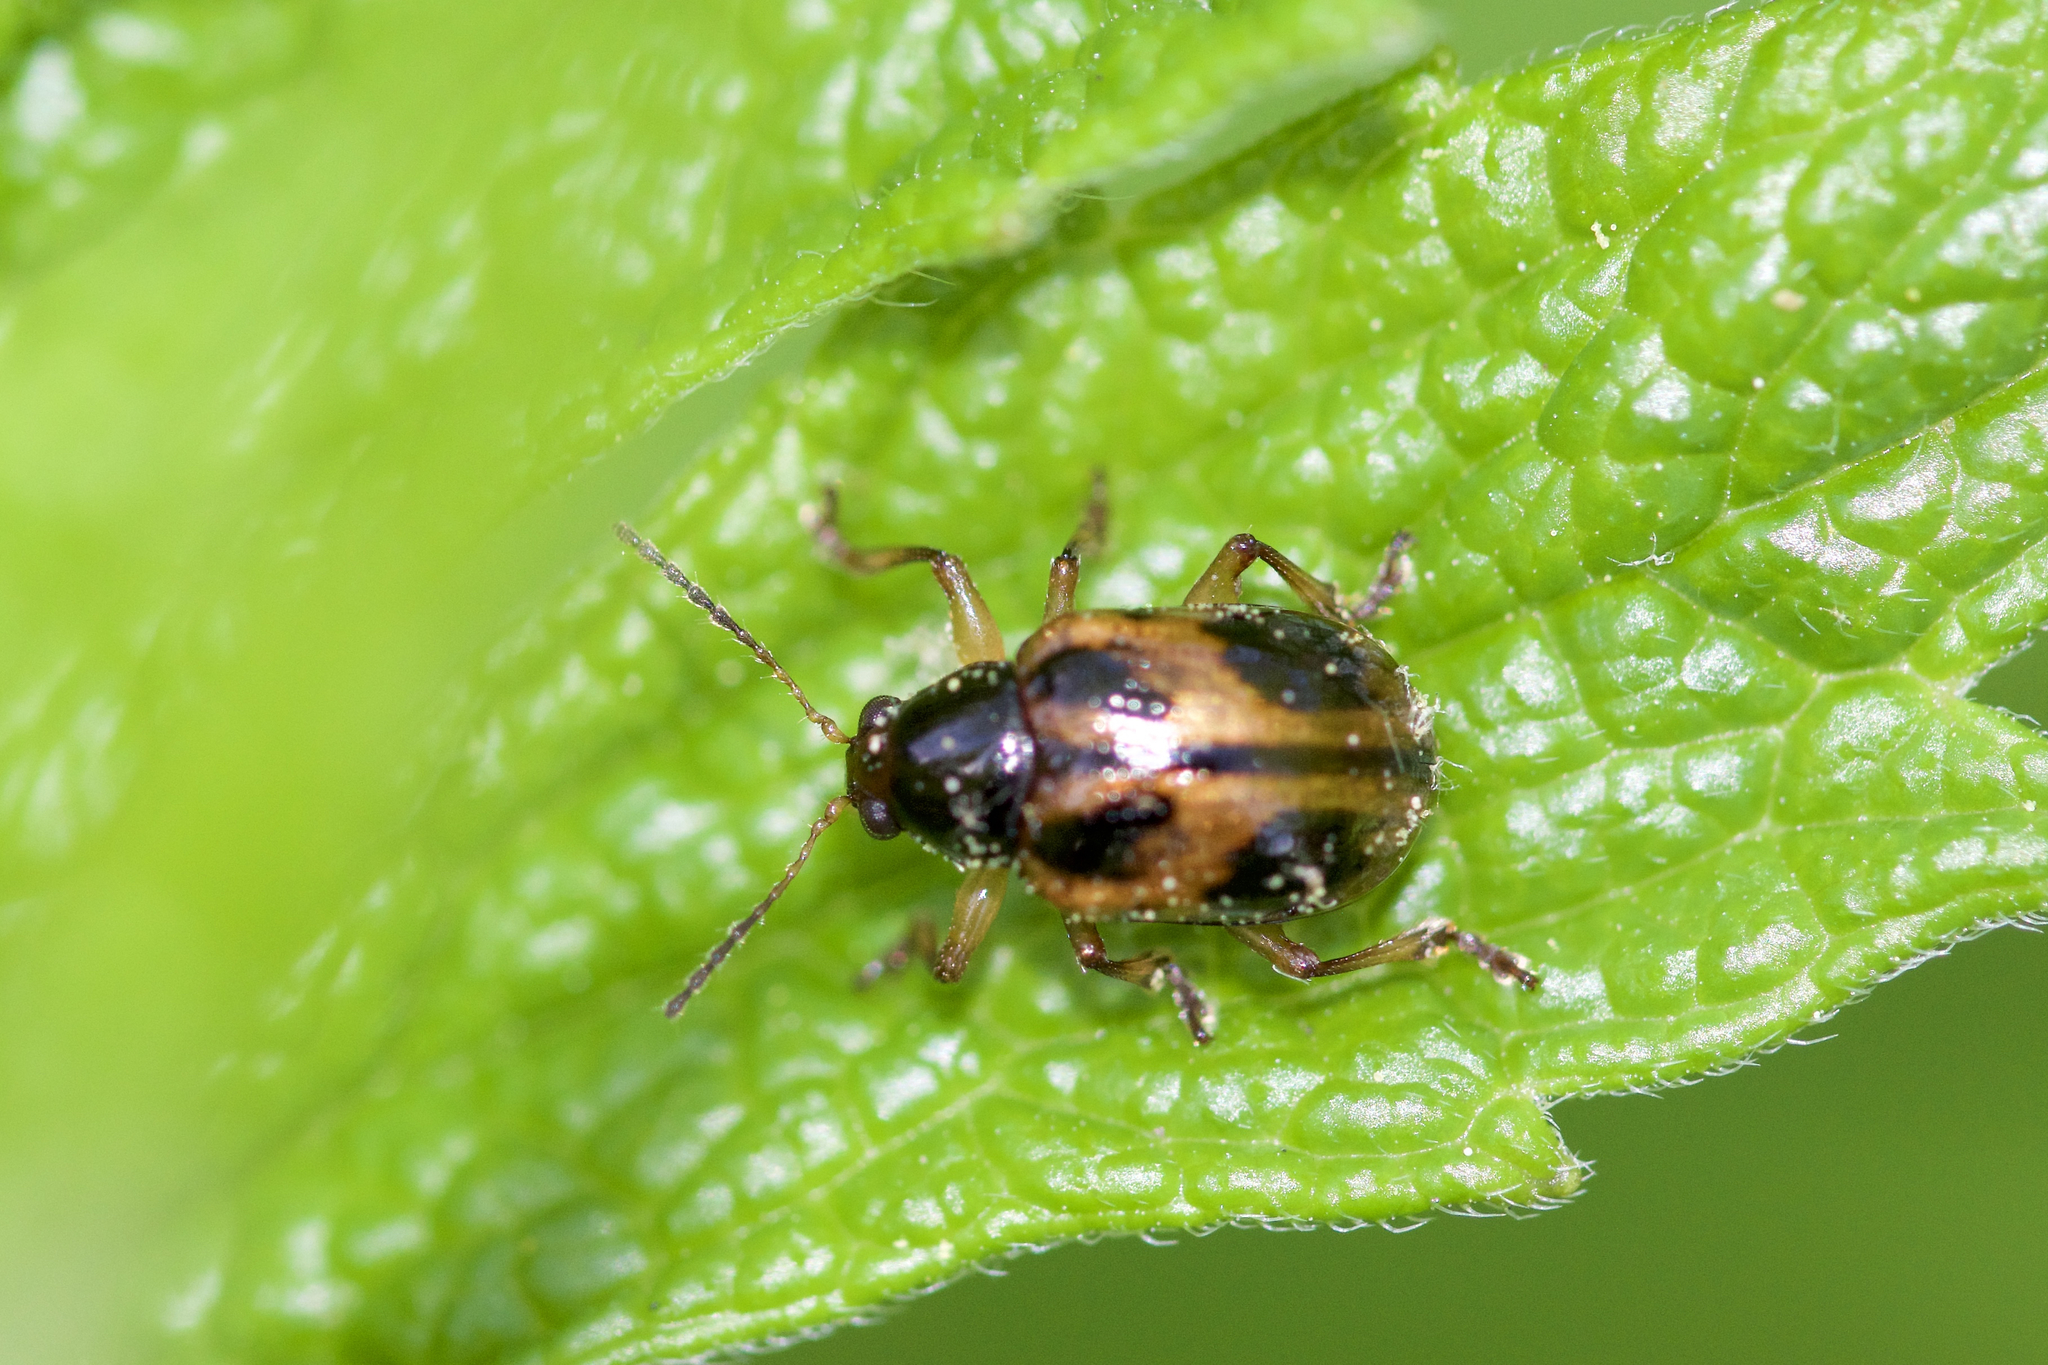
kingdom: Animalia
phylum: Arthropoda
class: Insecta
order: Coleoptera
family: Chrysomelidae
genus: Paria
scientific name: Paria quadrinotata
